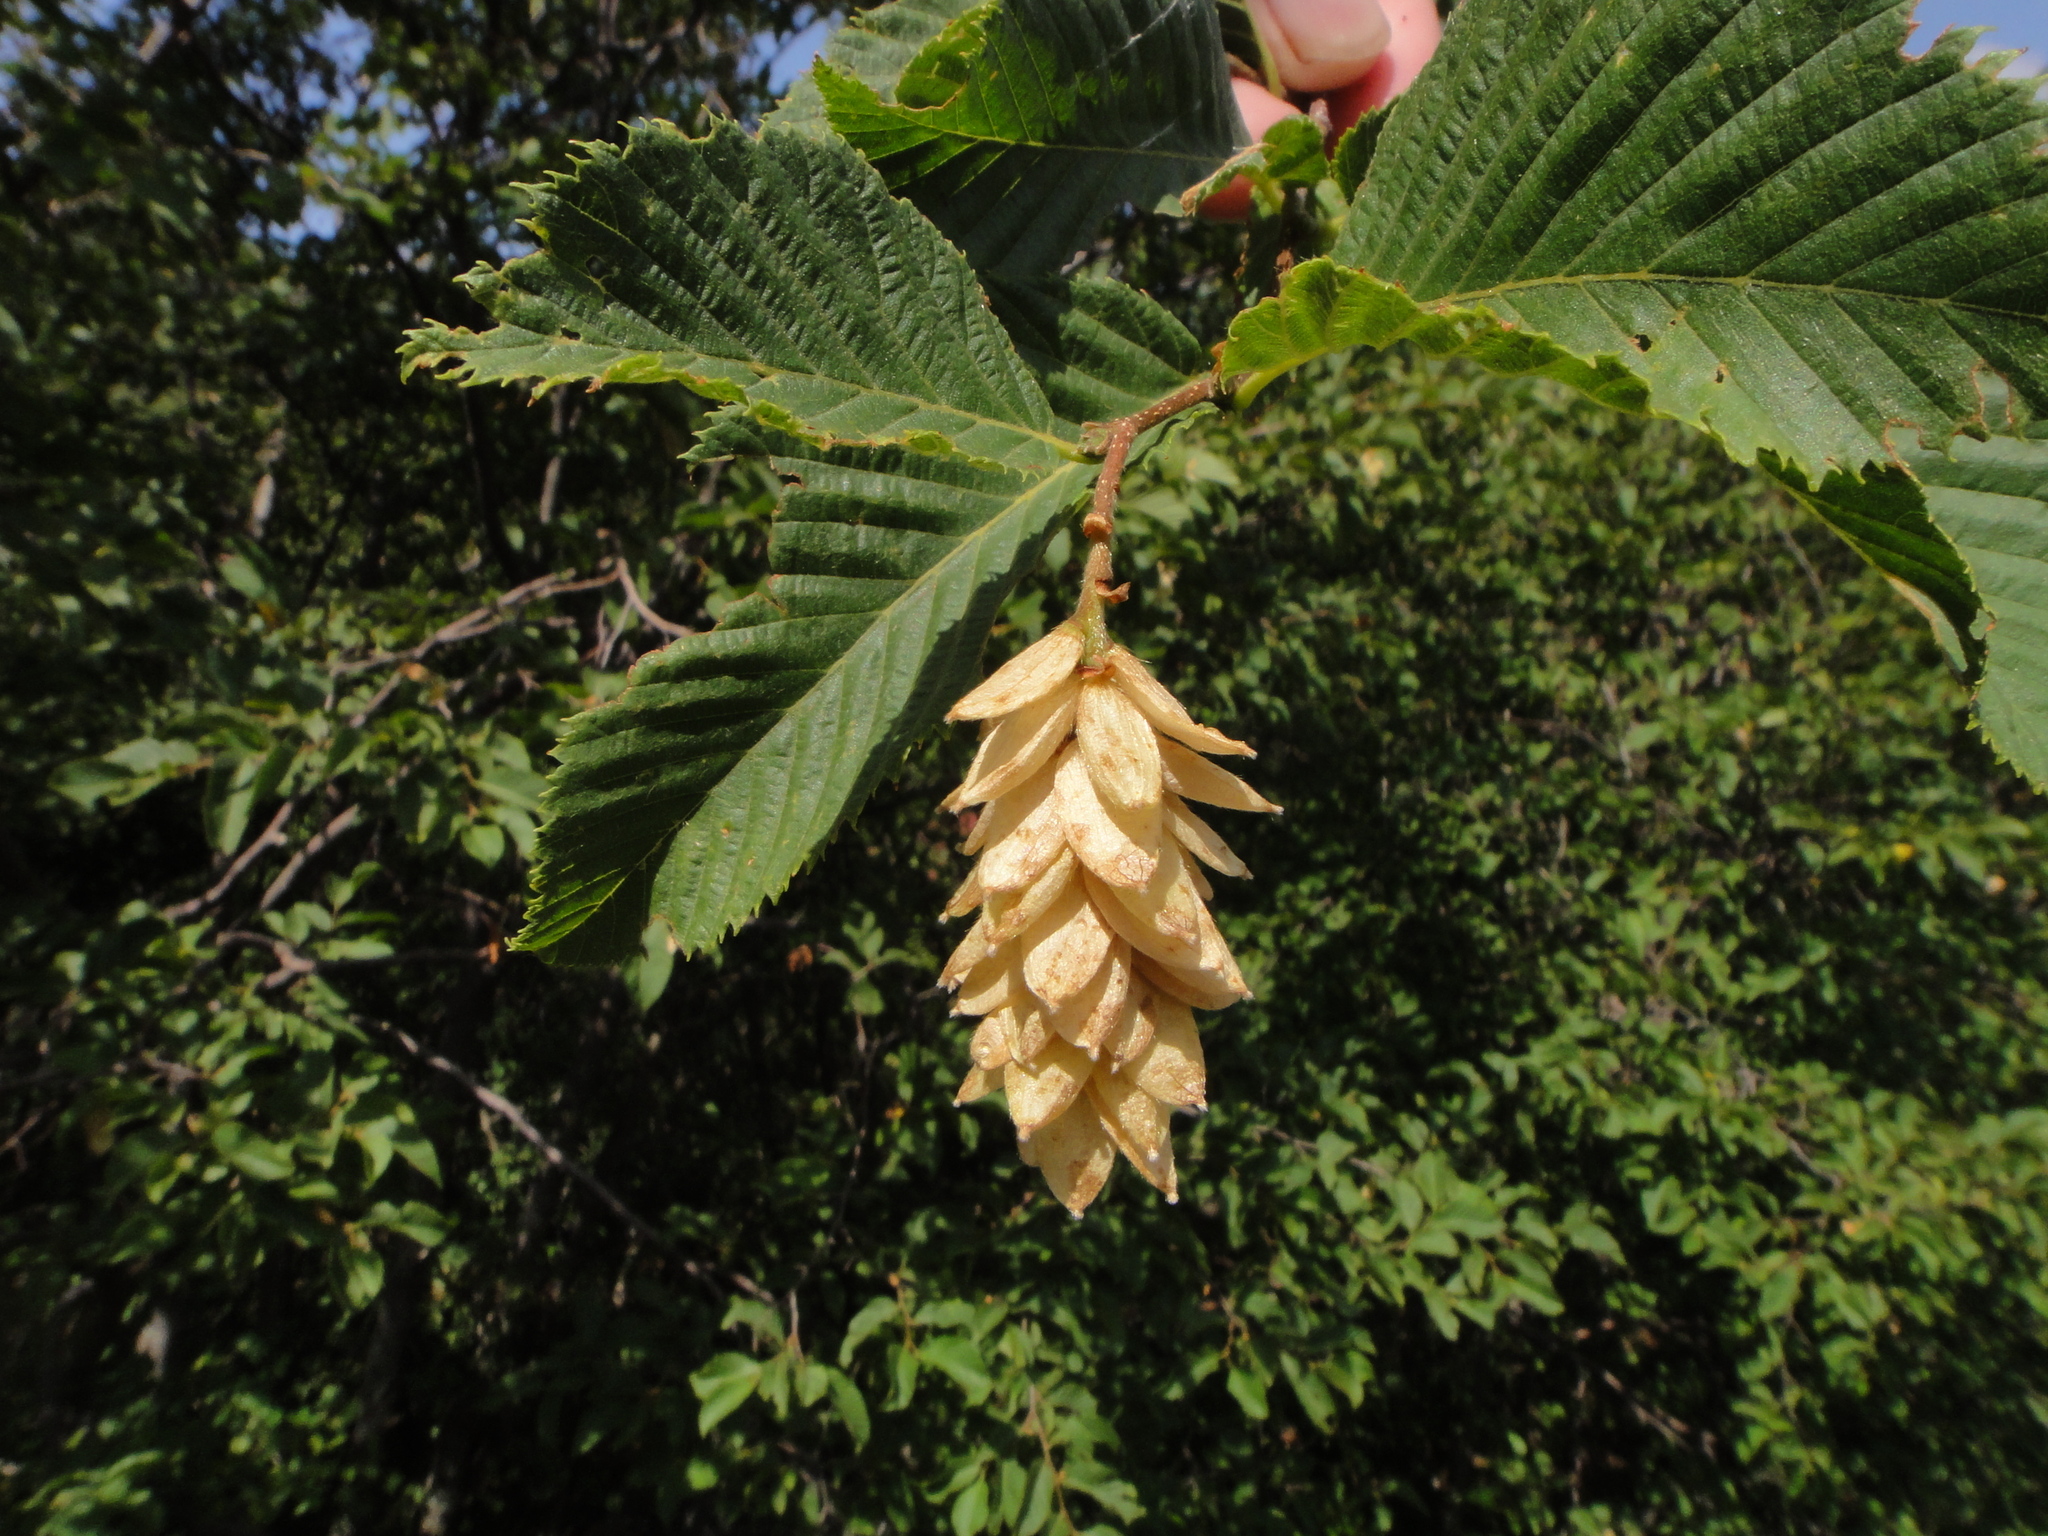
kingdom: Plantae
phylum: Tracheophyta
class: Magnoliopsida
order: Fagales
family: Betulaceae
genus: Ostrya
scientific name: Ostrya carpinifolia
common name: European hop-hornbeam
